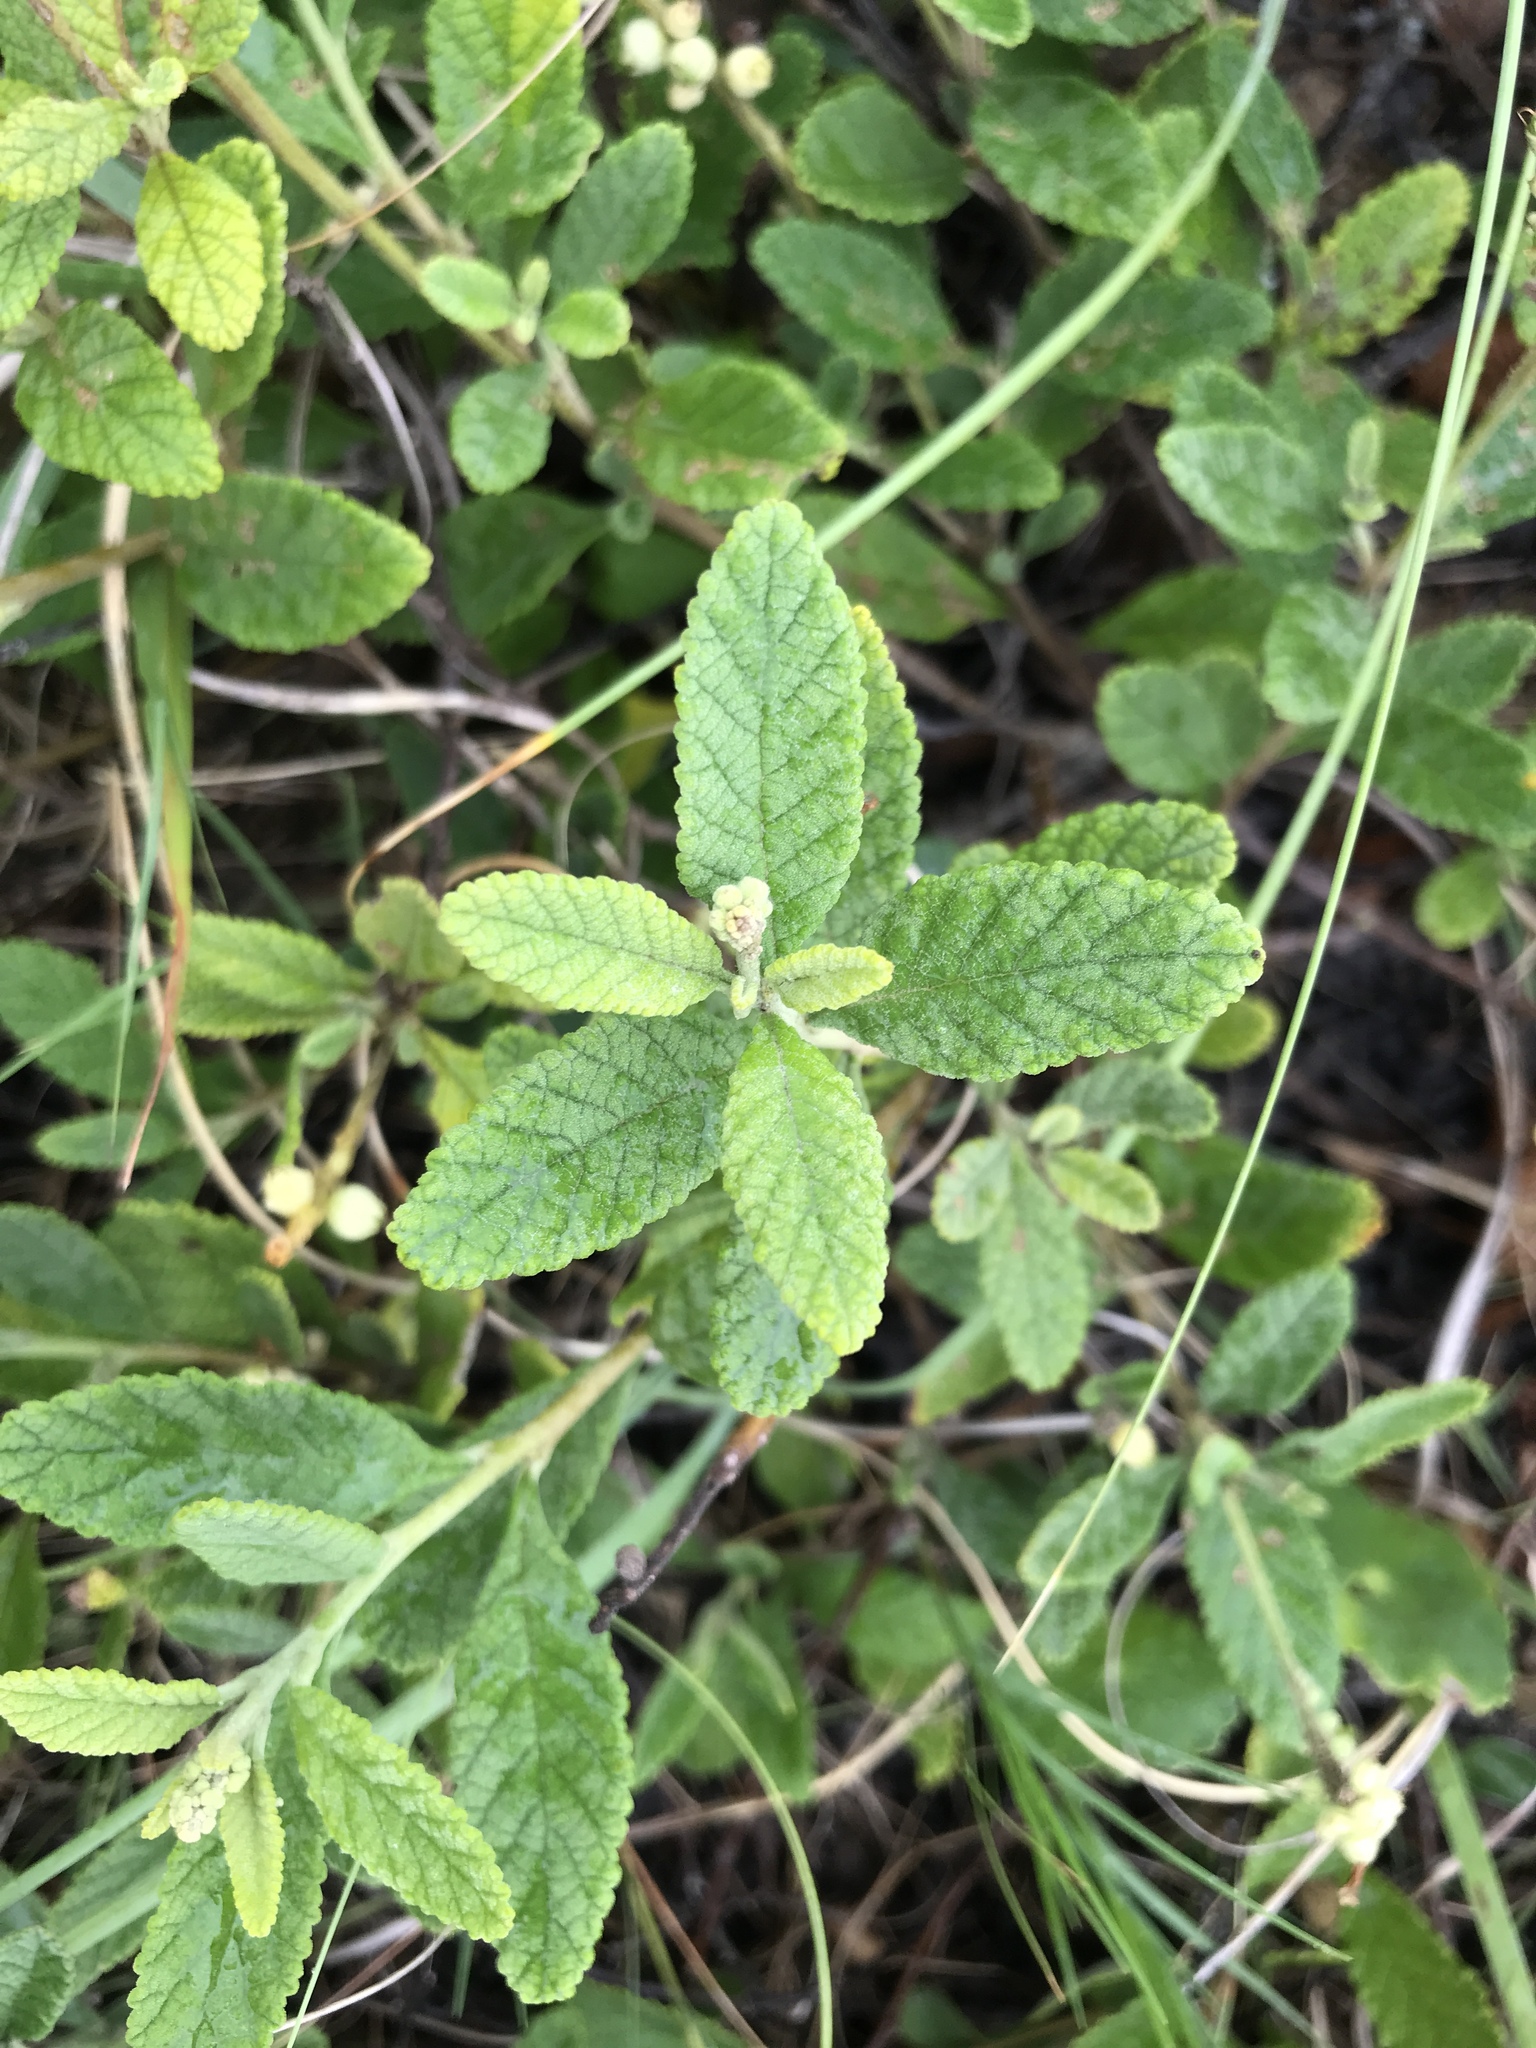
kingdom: Plantae
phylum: Tracheophyta
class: Magnoliopsida
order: Boraginales
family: Cordiaceae
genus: Varronia
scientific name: Varronia curassavica
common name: Black sage
